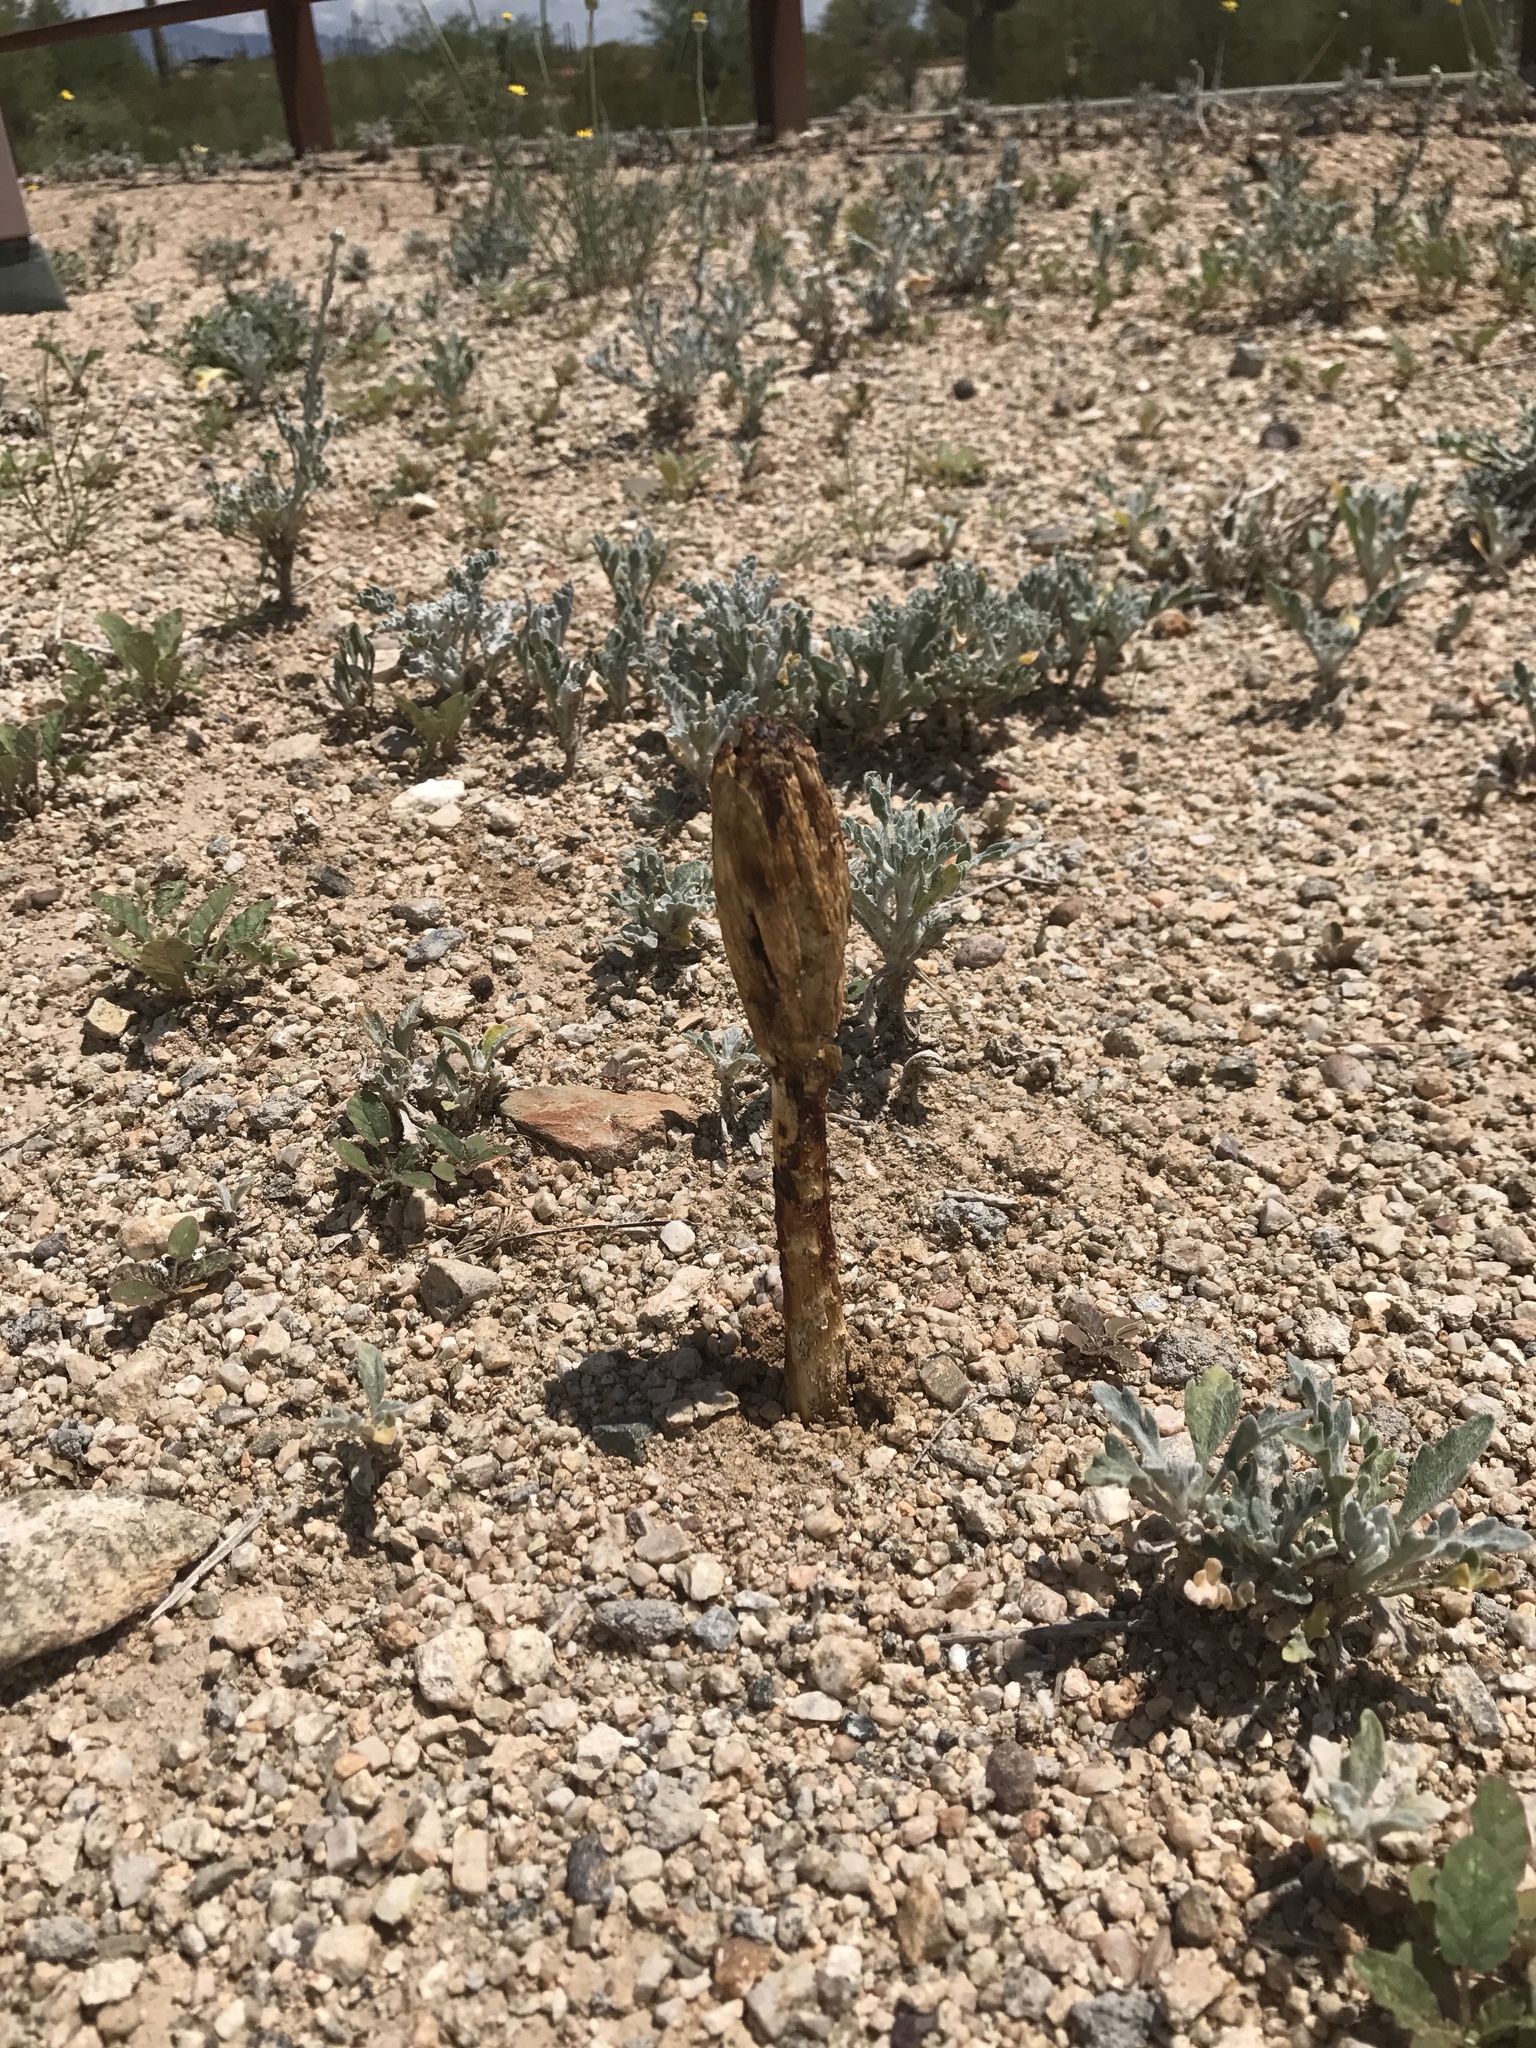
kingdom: Fungi
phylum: Basidiomycota
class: Agaricomycetes
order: Agaricales
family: Agaricaceae
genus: Podaxis
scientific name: Podaxis pistillaris
